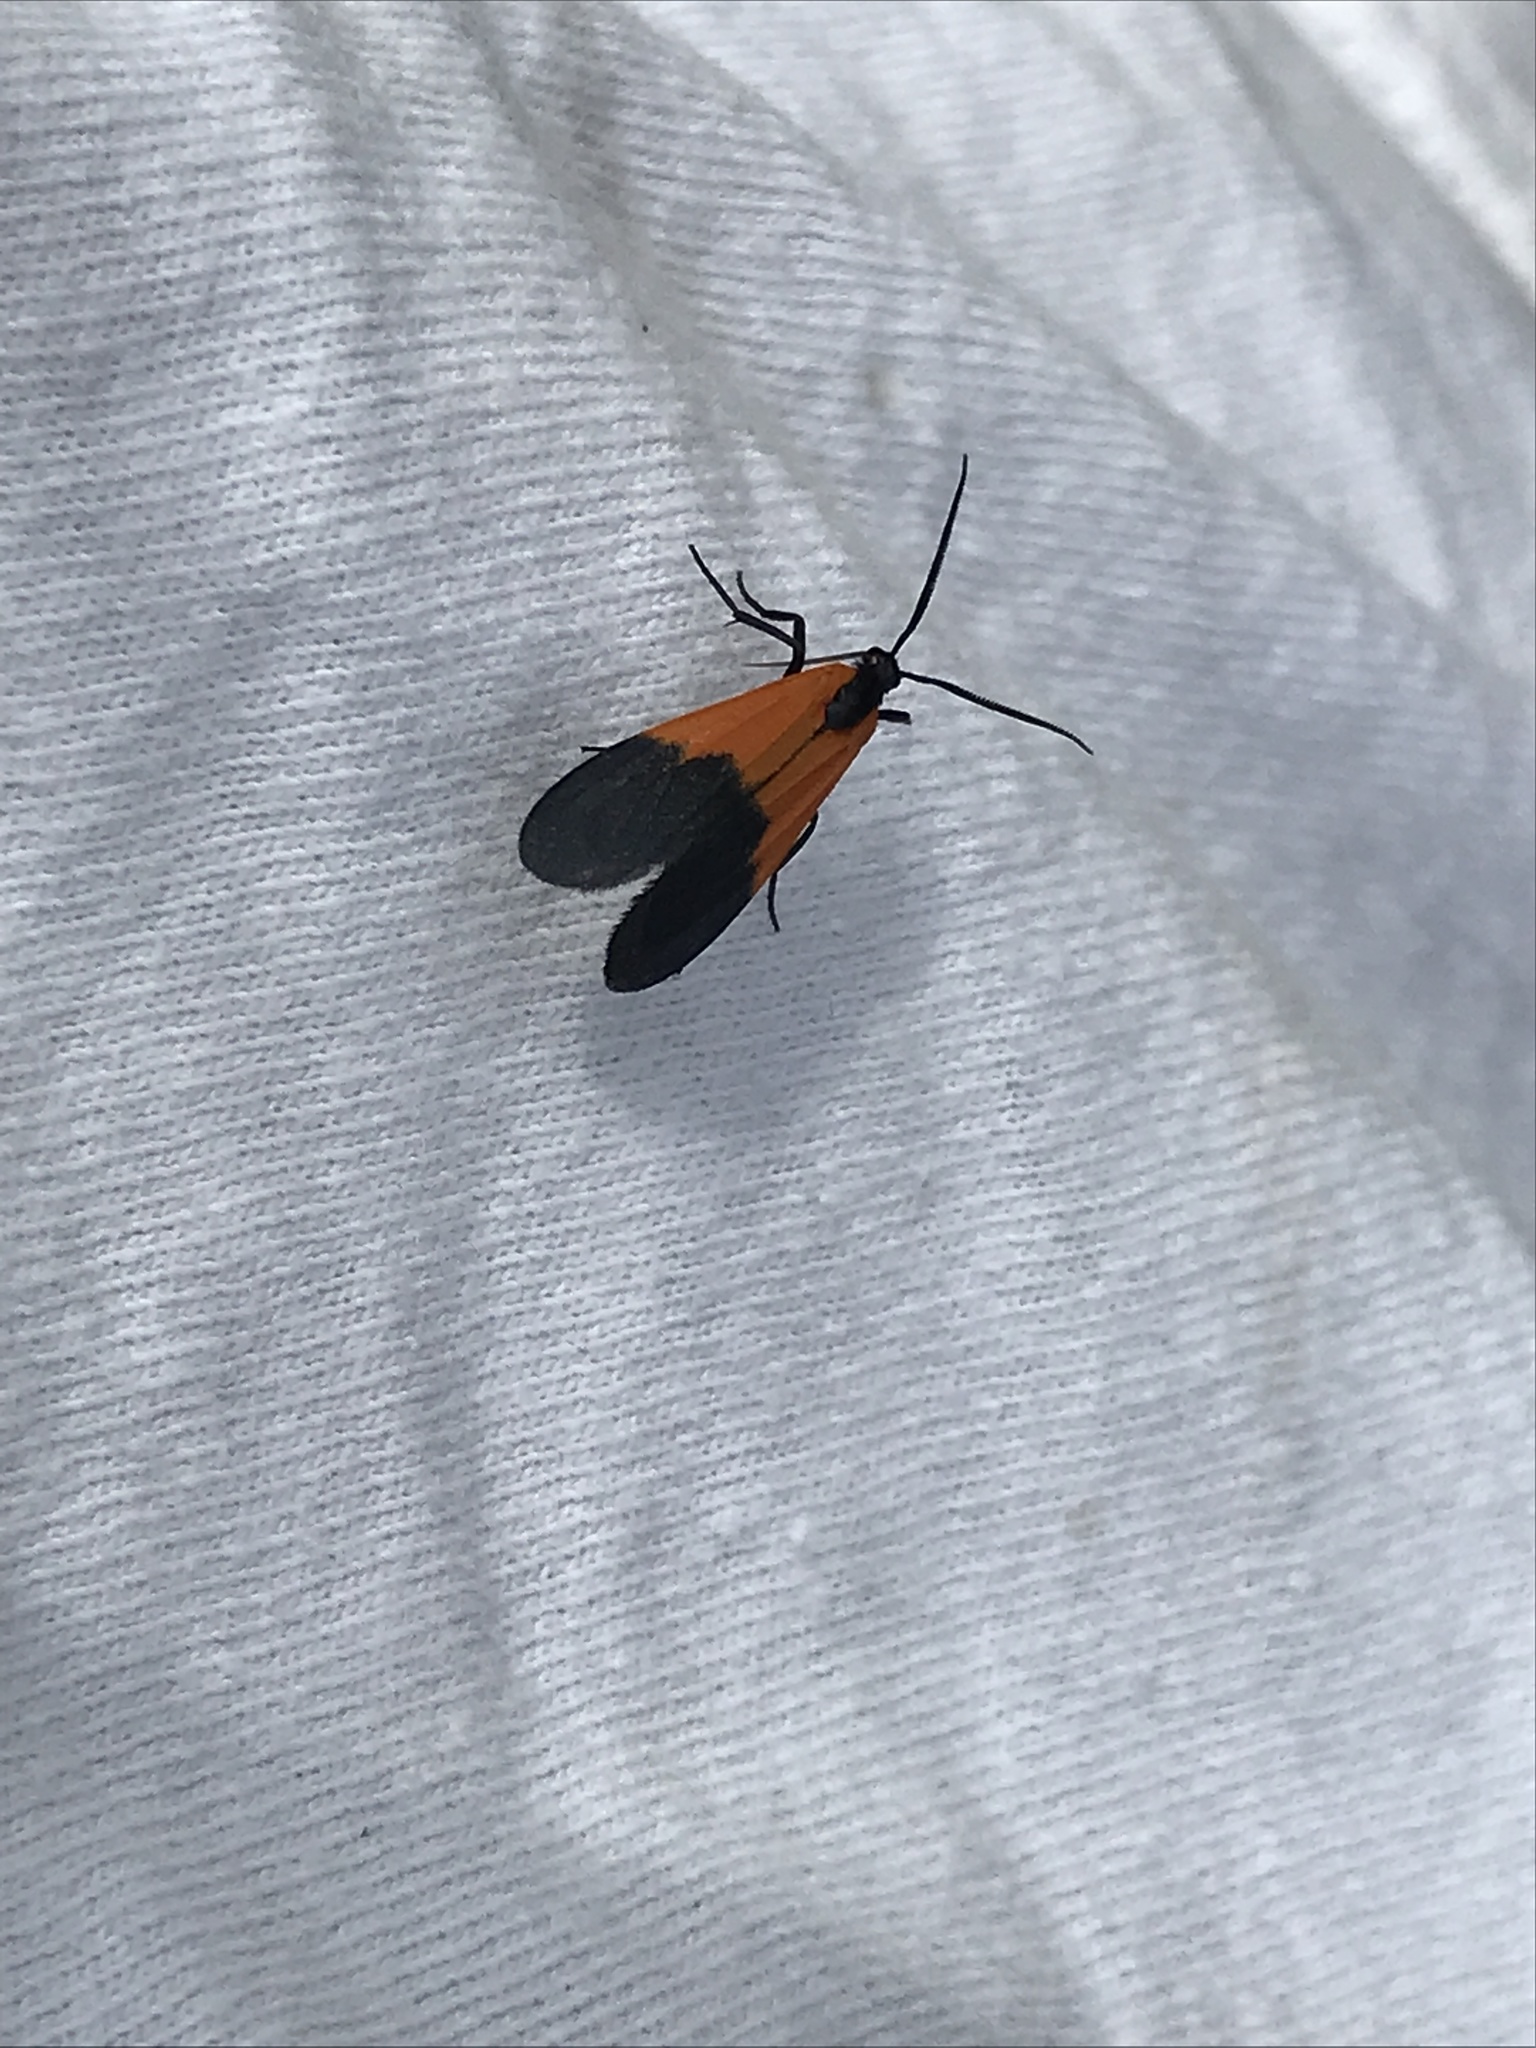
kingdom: Animalia
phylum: Arthropoda
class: Insecta
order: Lepidoptera
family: Erebidae
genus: Lycomorpha
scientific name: Lycomorpha pholus
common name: Black-and-yellow lichen moth
